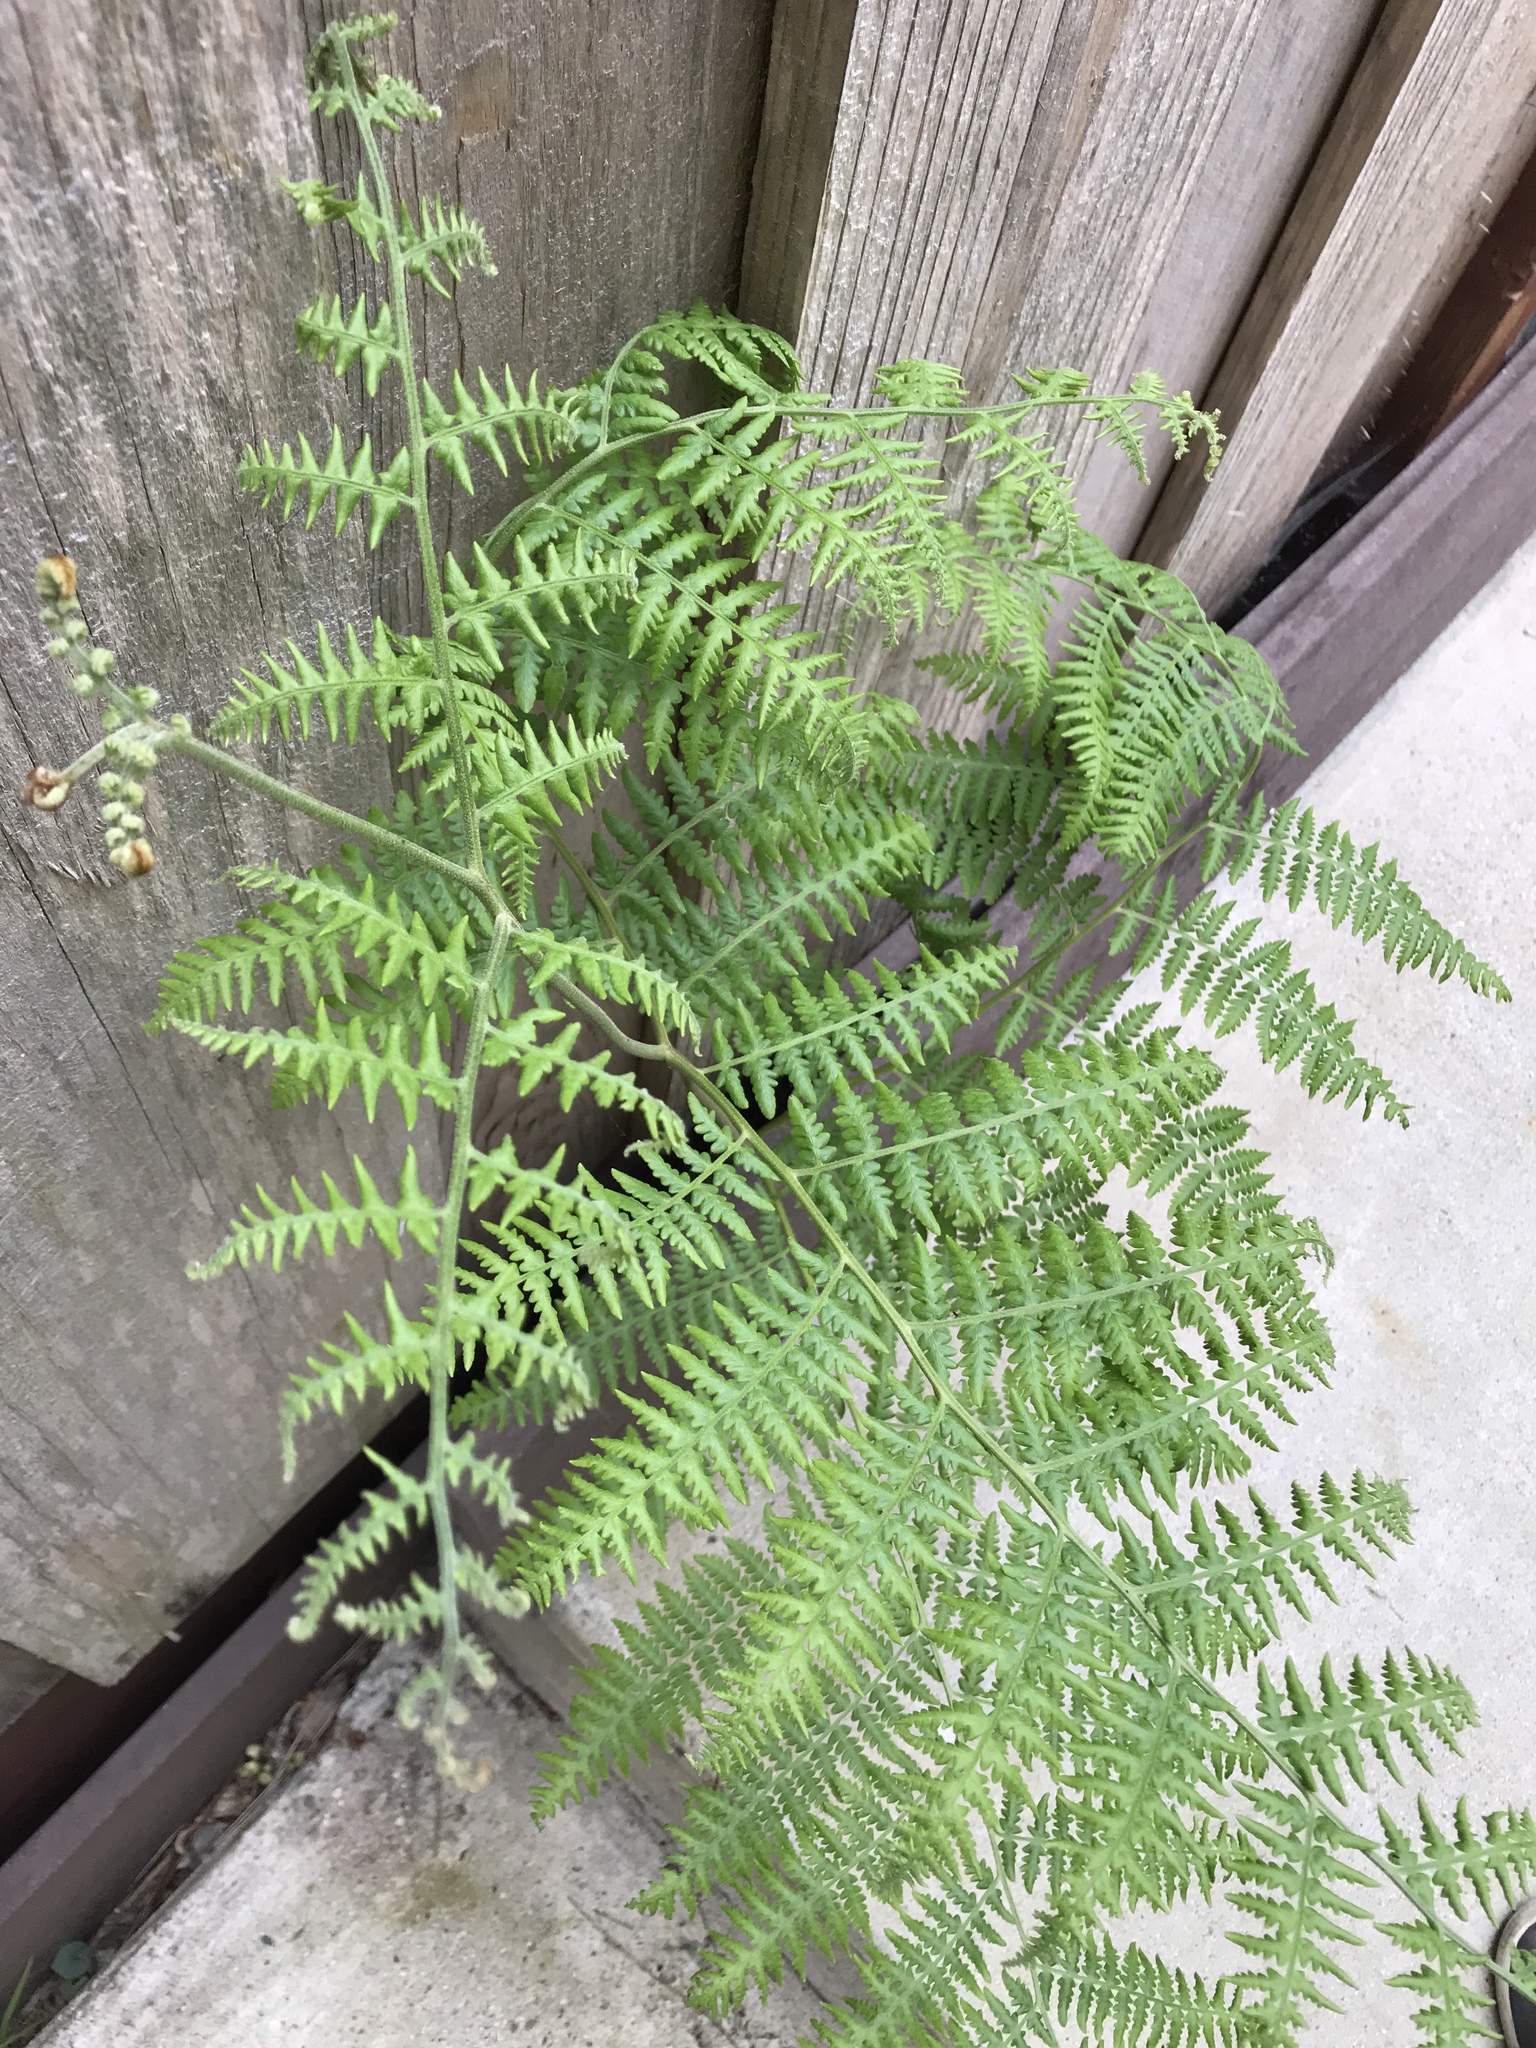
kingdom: Plantae
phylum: Tracheophyta
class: Polypodiopsida
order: Polypodiales
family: Dennstaedtiaceae
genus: Pteridium
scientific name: Pteridium aquilinum
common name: Bracken
